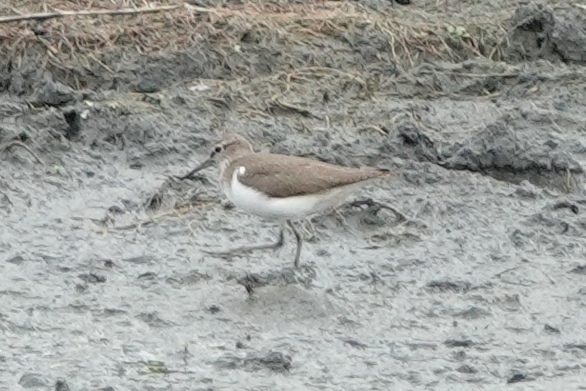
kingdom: Animalia
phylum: Chordata
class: Aves
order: Charadriiformes
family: Scolopacidae
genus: Actitis
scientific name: Actitis hypoleucos
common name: Common sandpiper
